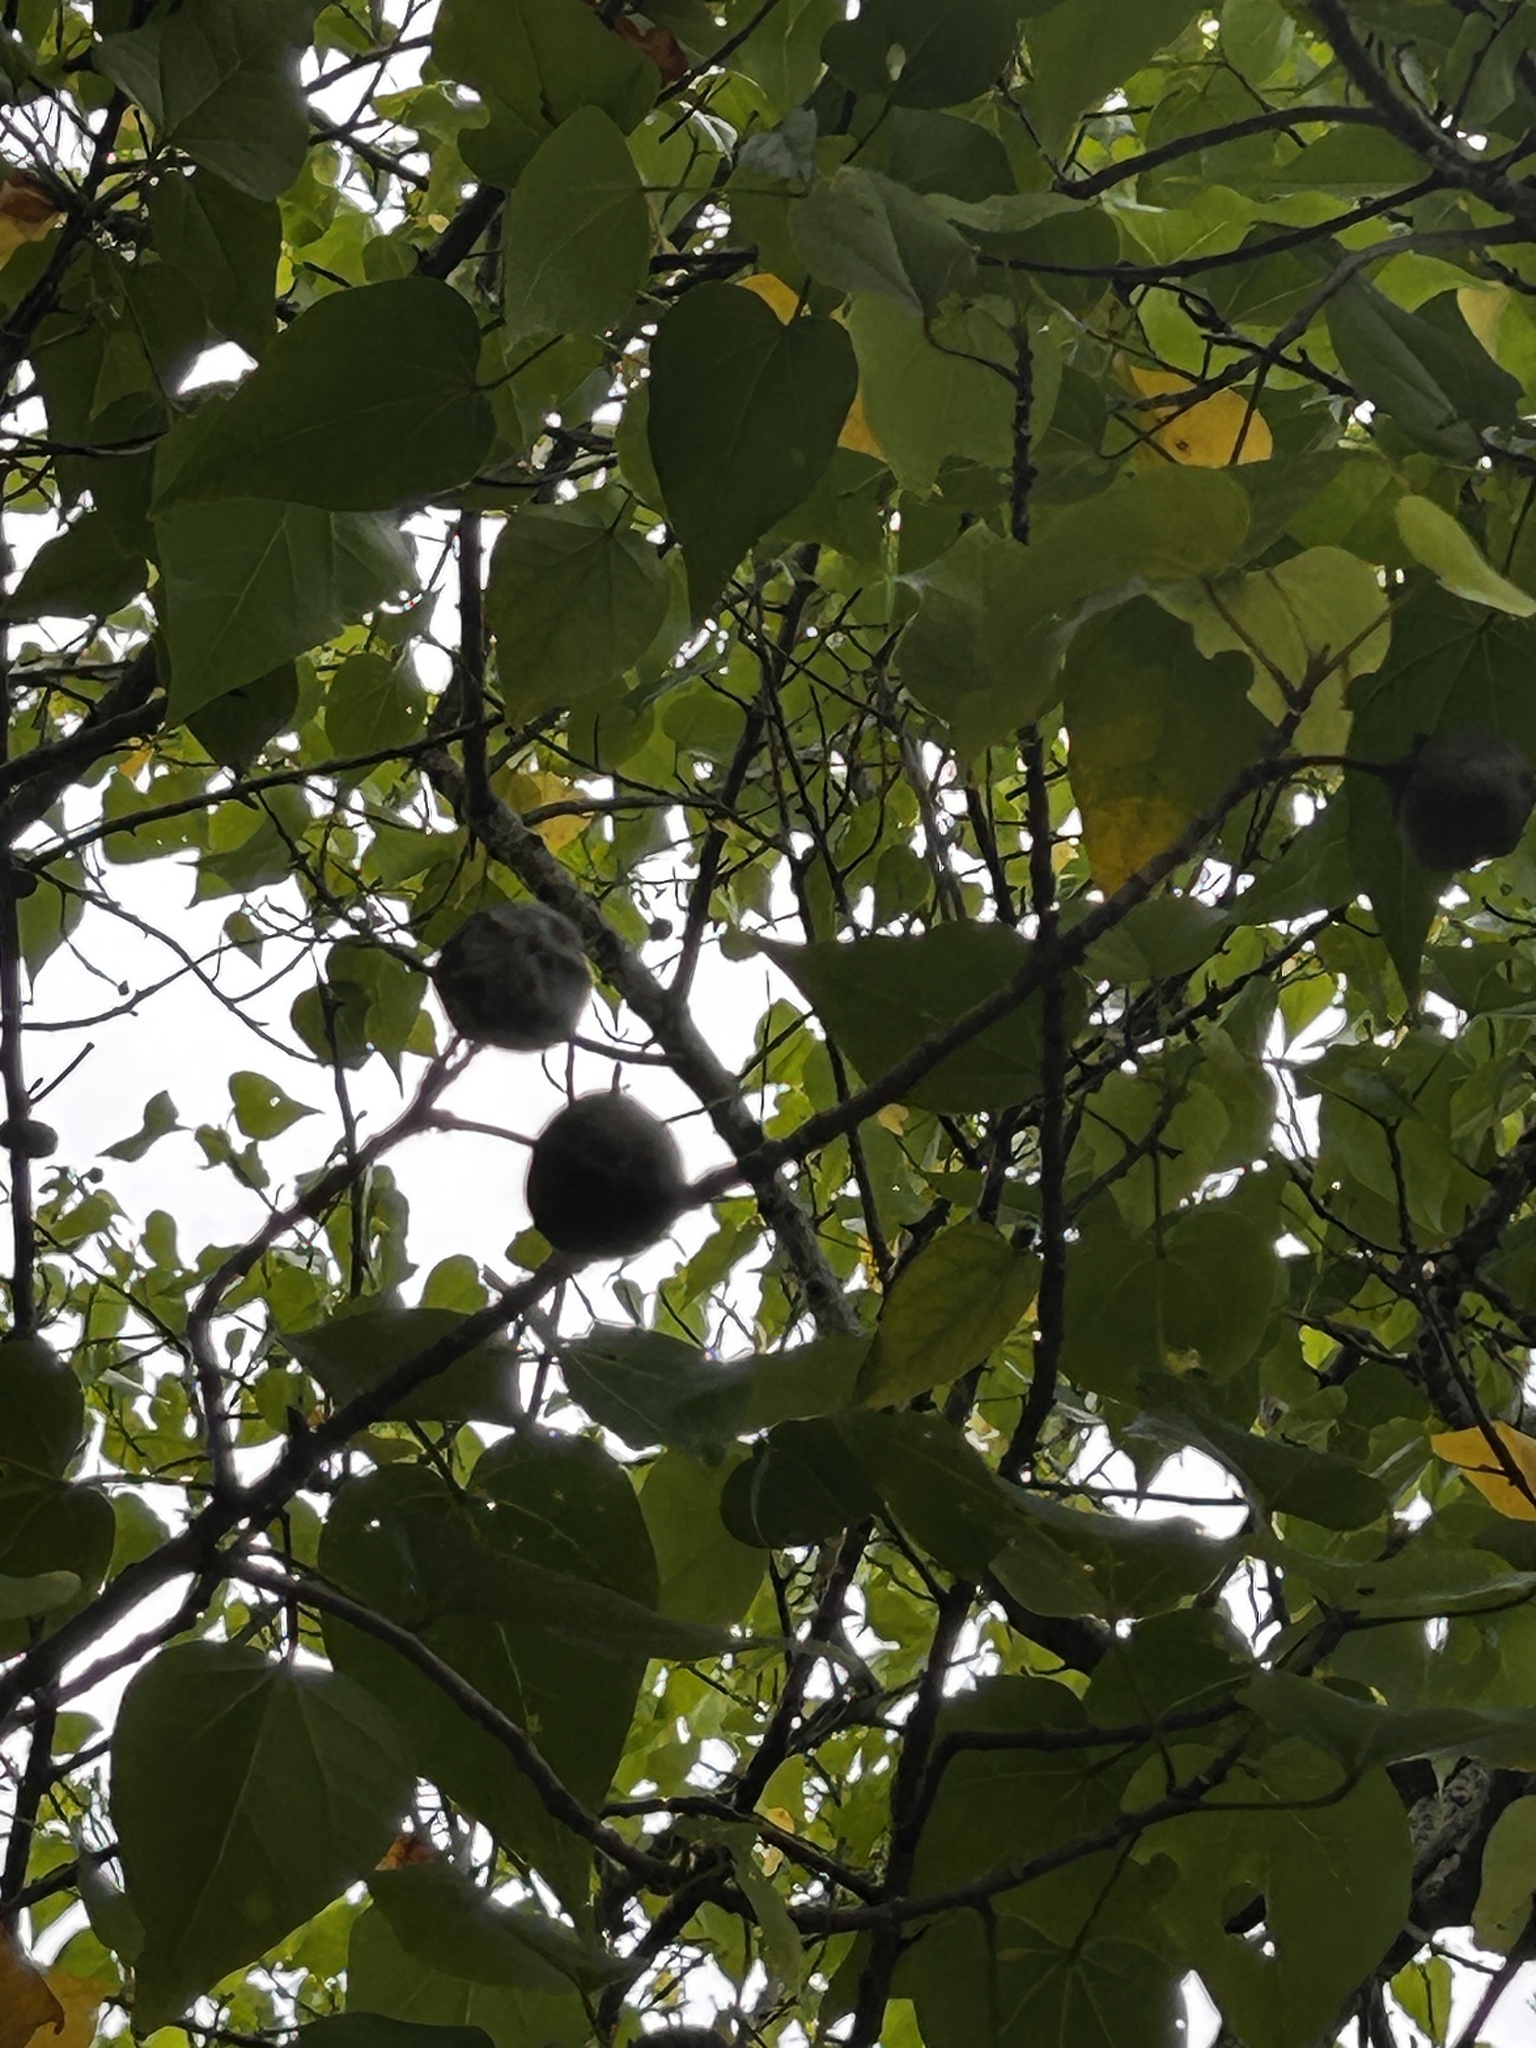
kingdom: Plantae
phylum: Tracheophyta
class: Magnoliopsida
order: Malvales
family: Malvaceae
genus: Thespesia
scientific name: Thespesia populnea
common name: Seaside mahoe
